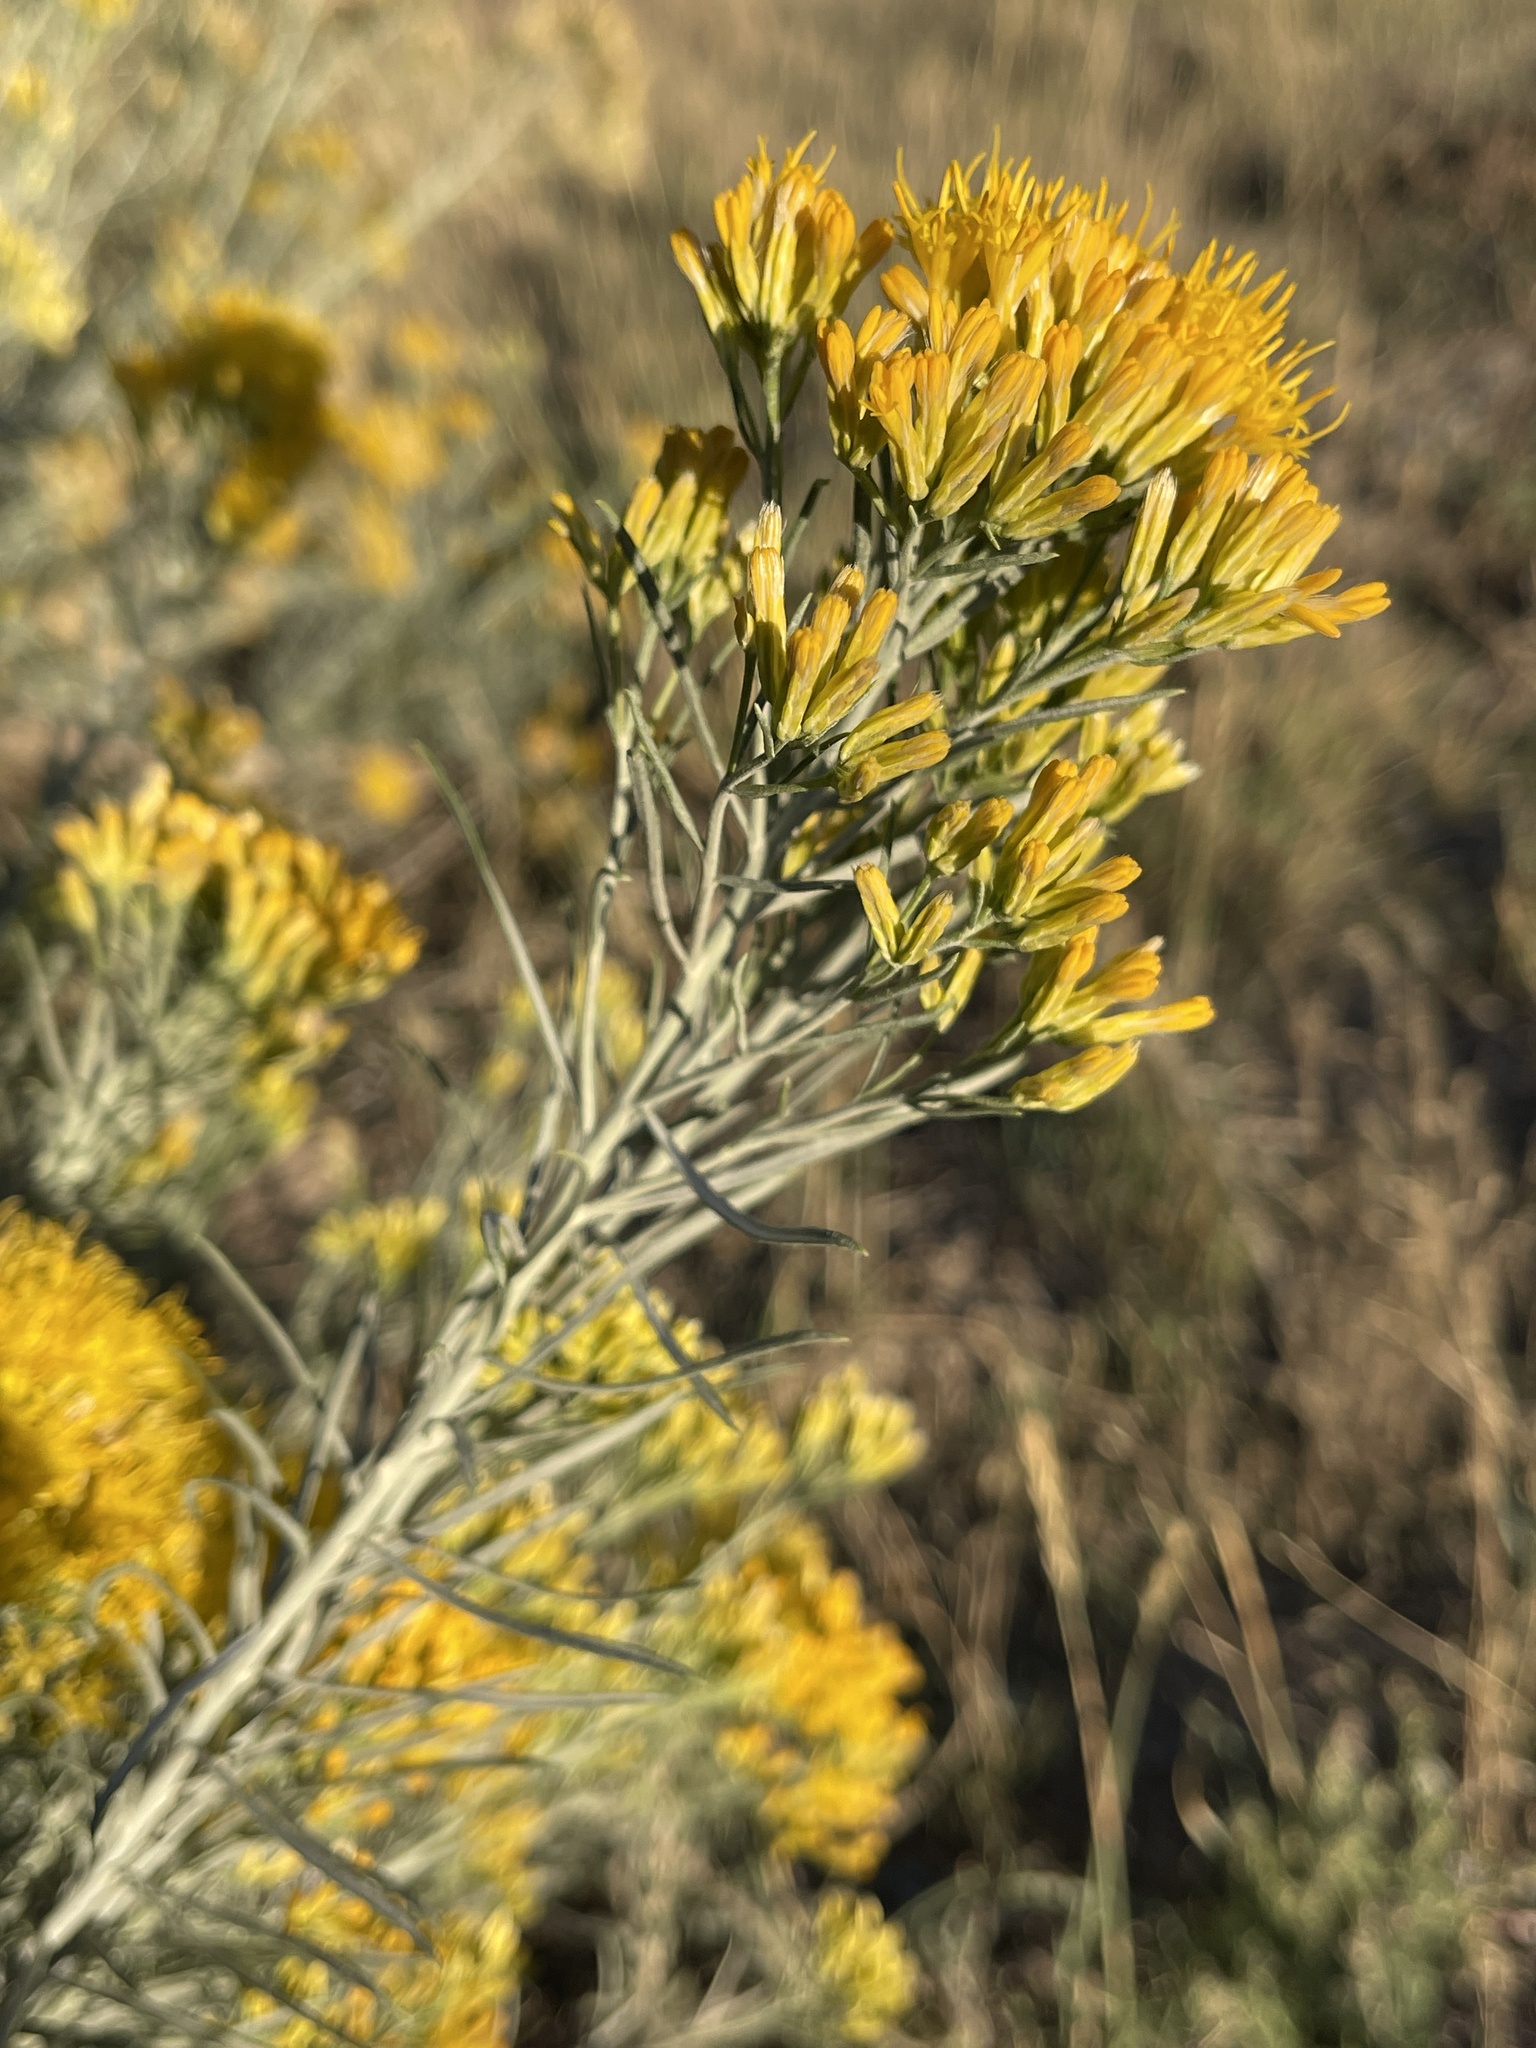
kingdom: Plantae
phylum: Tracheophyta
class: Magnoliopsida
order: Asterales
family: Asteraceae
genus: Ericameria
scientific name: Ericameria nauseosa
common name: Rubber rabbitbrush
